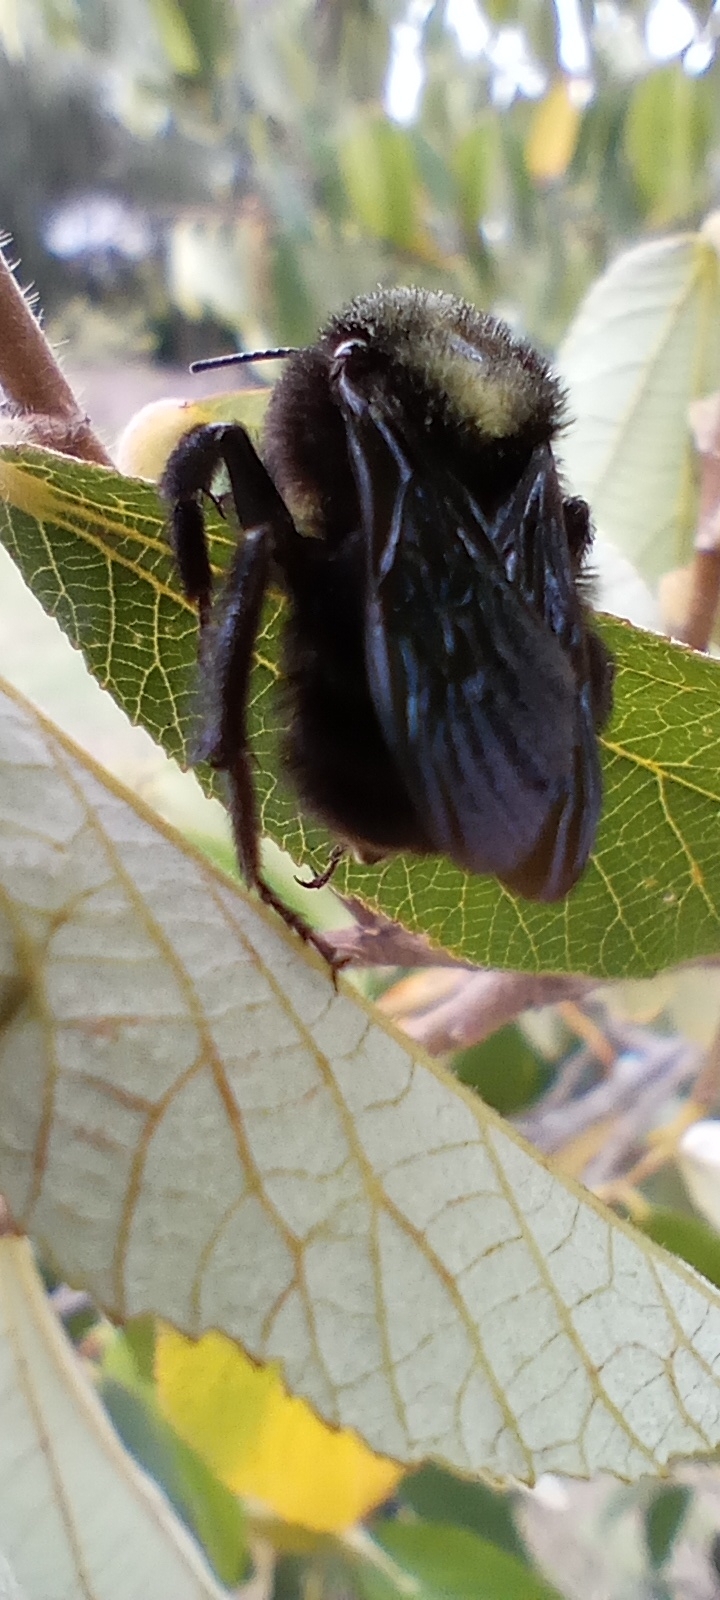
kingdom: Animalia
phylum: Arthropoda
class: Insecta
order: Hymenoptera
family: Apidae
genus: Bombus
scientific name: Bombus pauloensis
